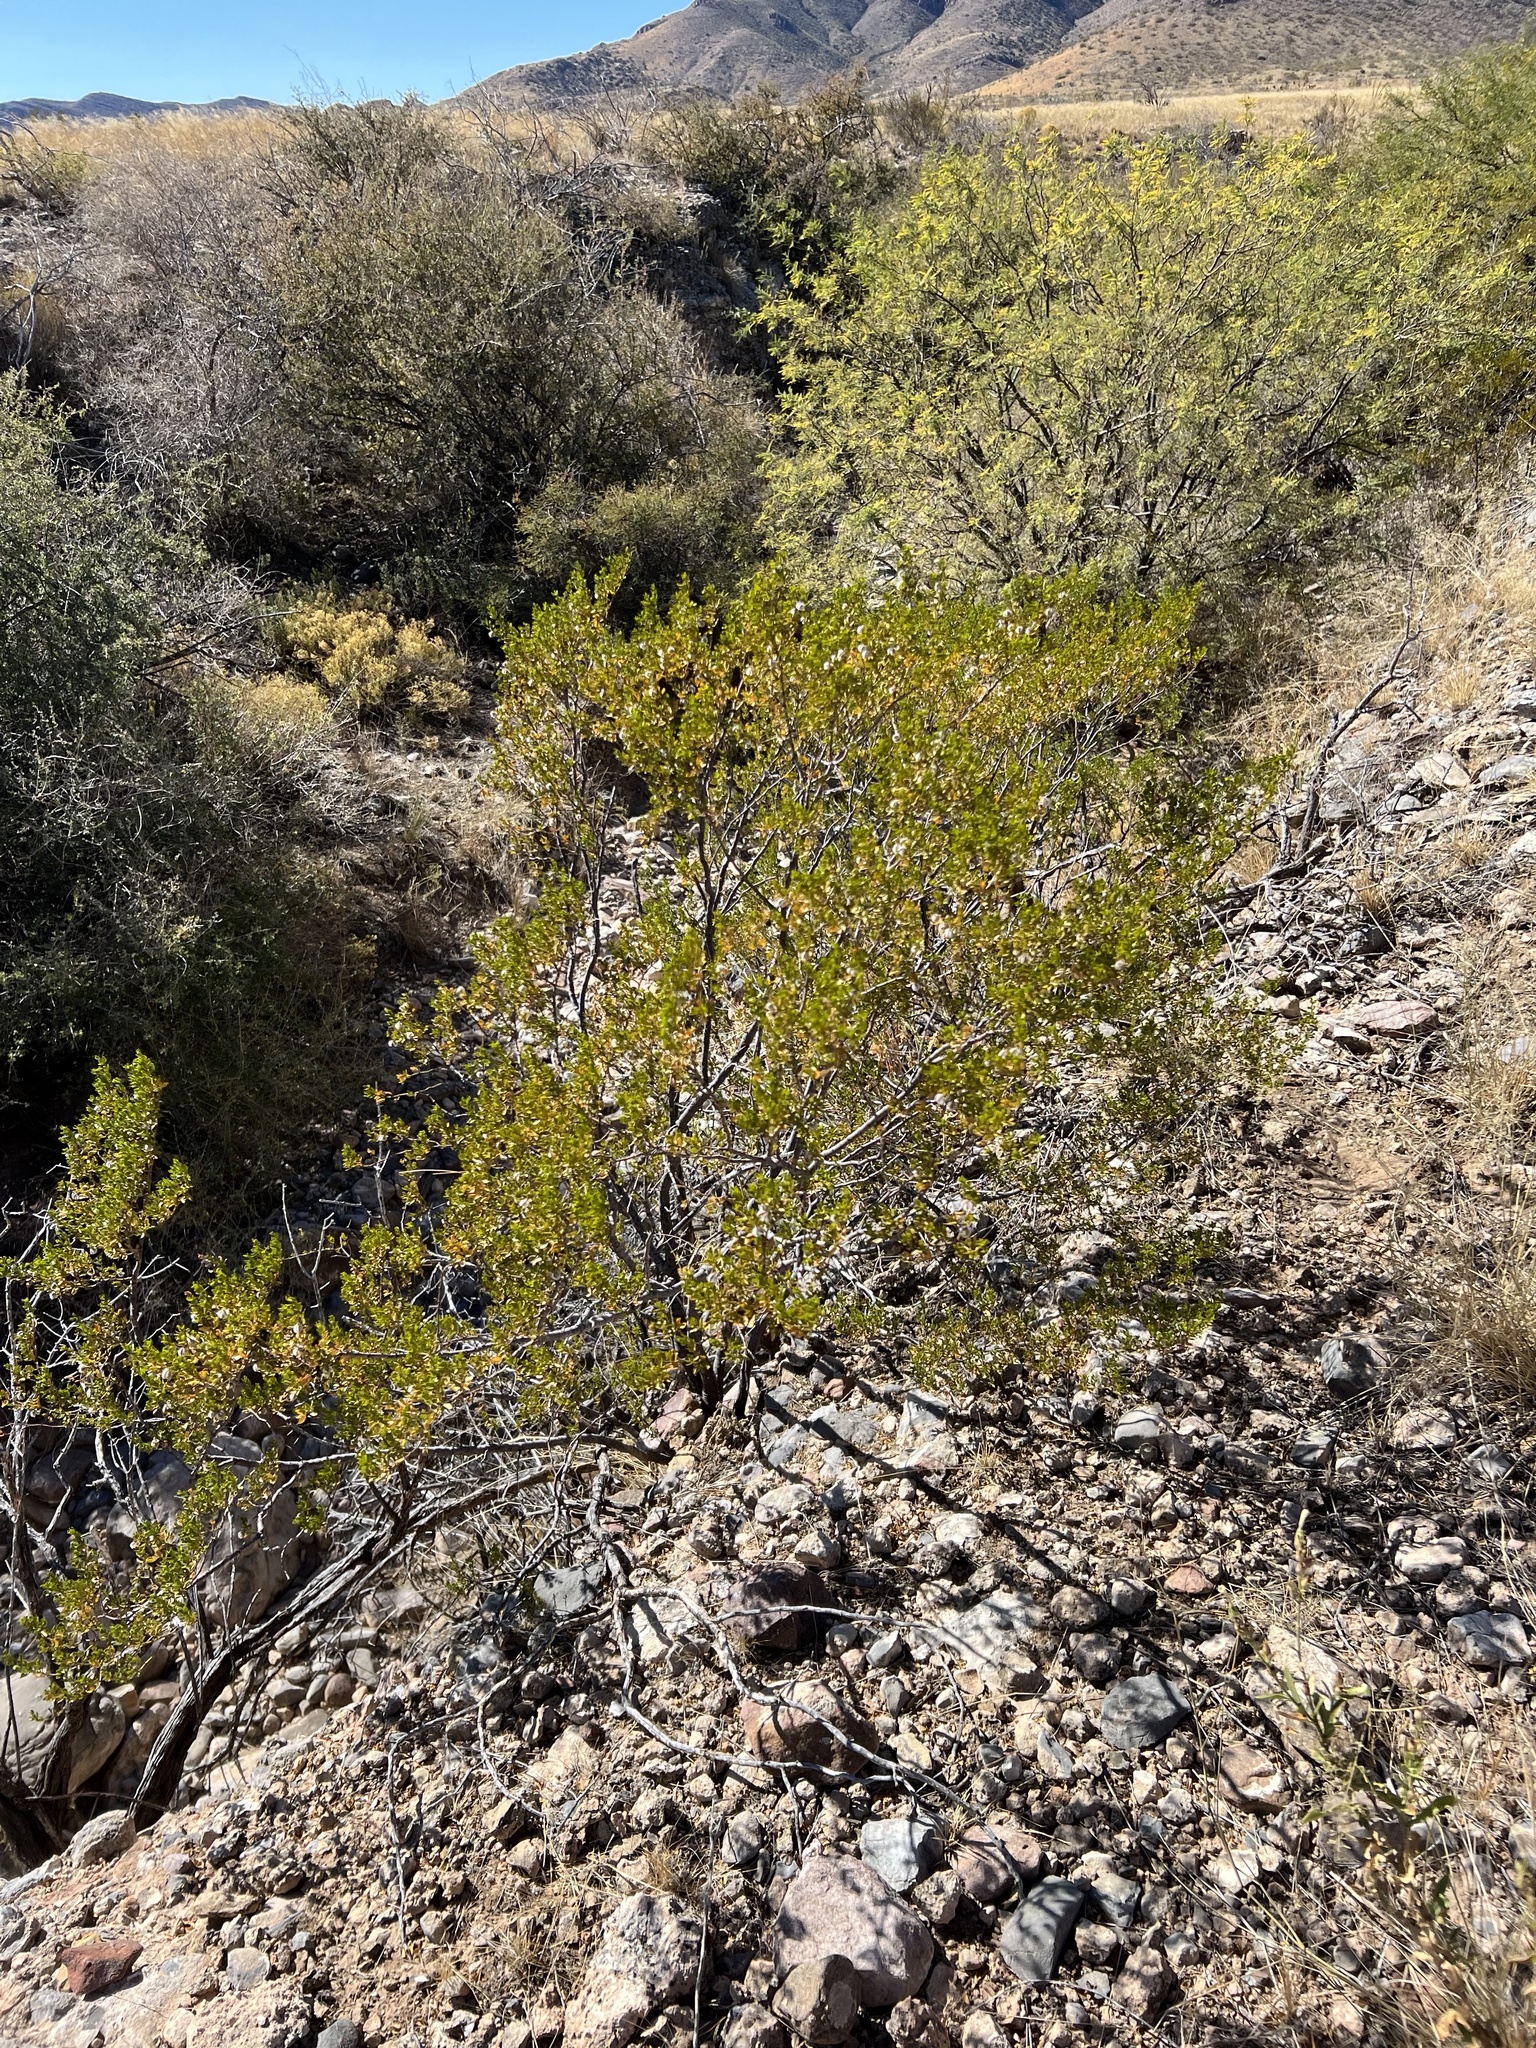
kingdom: Plantae
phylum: Tracheophyta
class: Magnoliopsida
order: Zygophyllales
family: Zygophyllaceae
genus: Larrea
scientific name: Larrea tridentata
